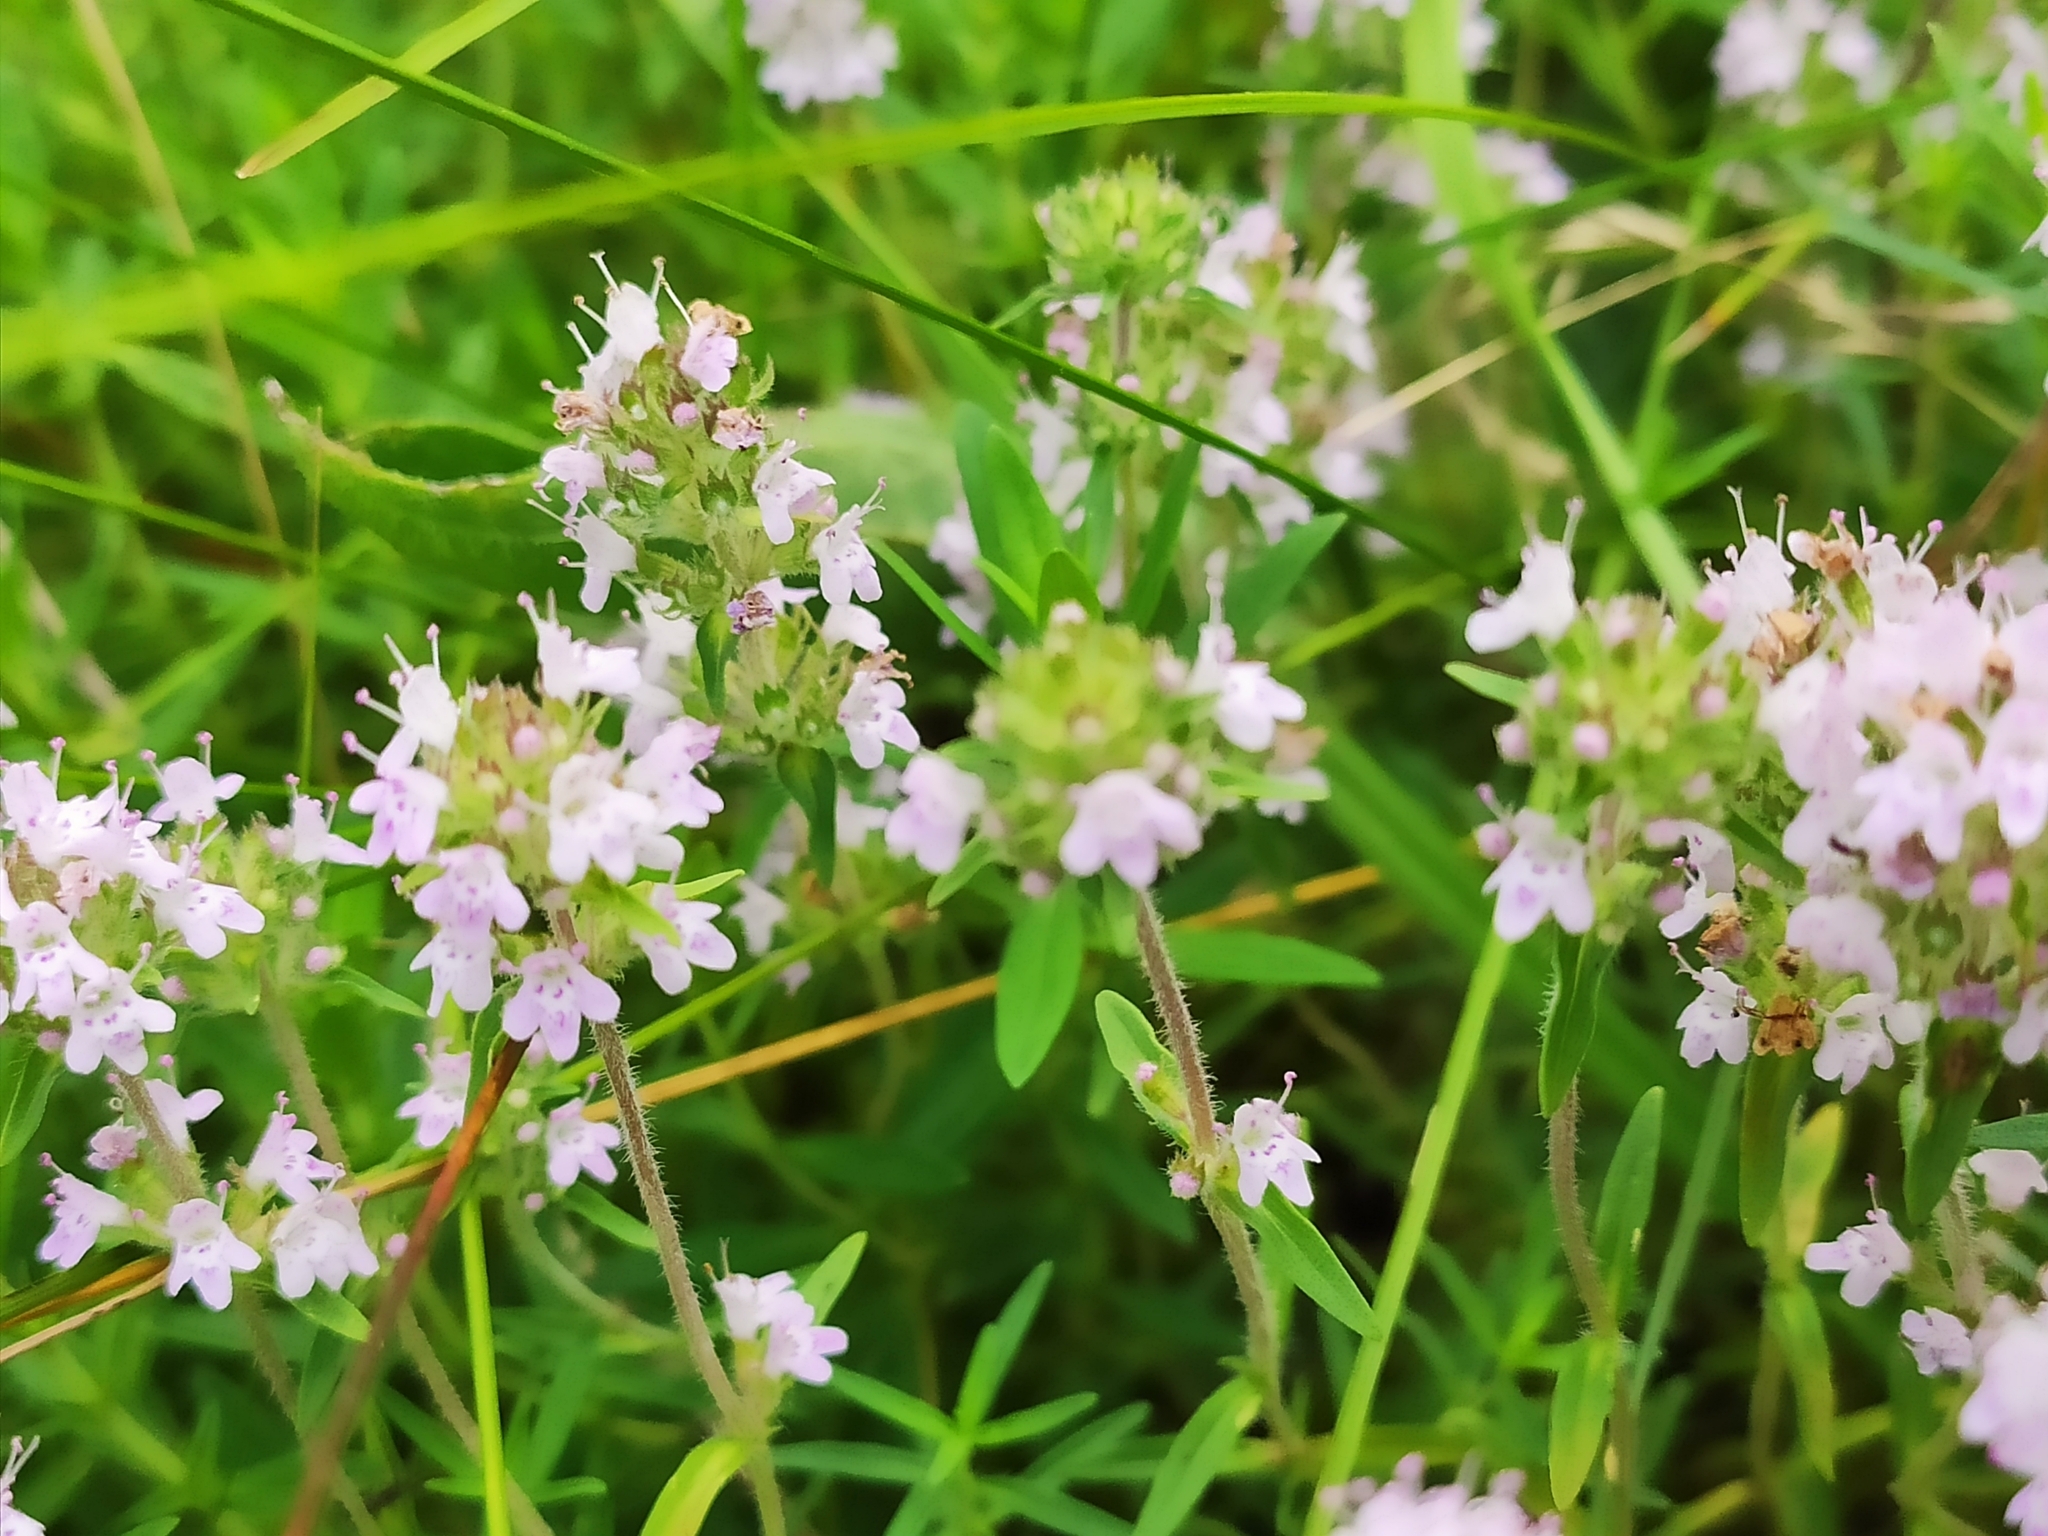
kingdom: Plantae
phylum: Tracheophyta
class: Magnoliopsida
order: Lamiales
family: Lamiaceae
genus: Thymus
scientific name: Thymus pannonicus
